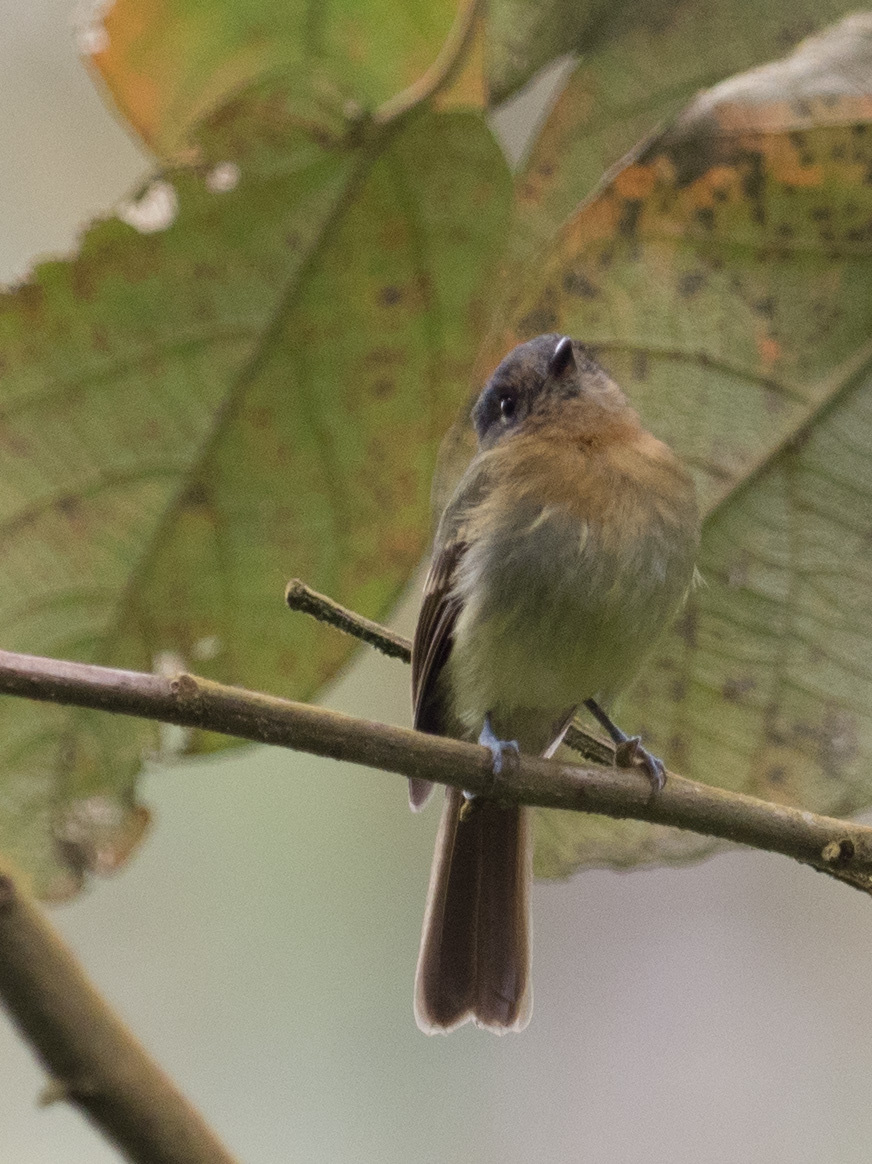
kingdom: Animalia
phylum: Chordata
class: Aves
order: Passeriformes
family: Tyrannidae
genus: Leptopogon
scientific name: Leptopogon rufipectus
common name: Rufous-breasted flycatcher
